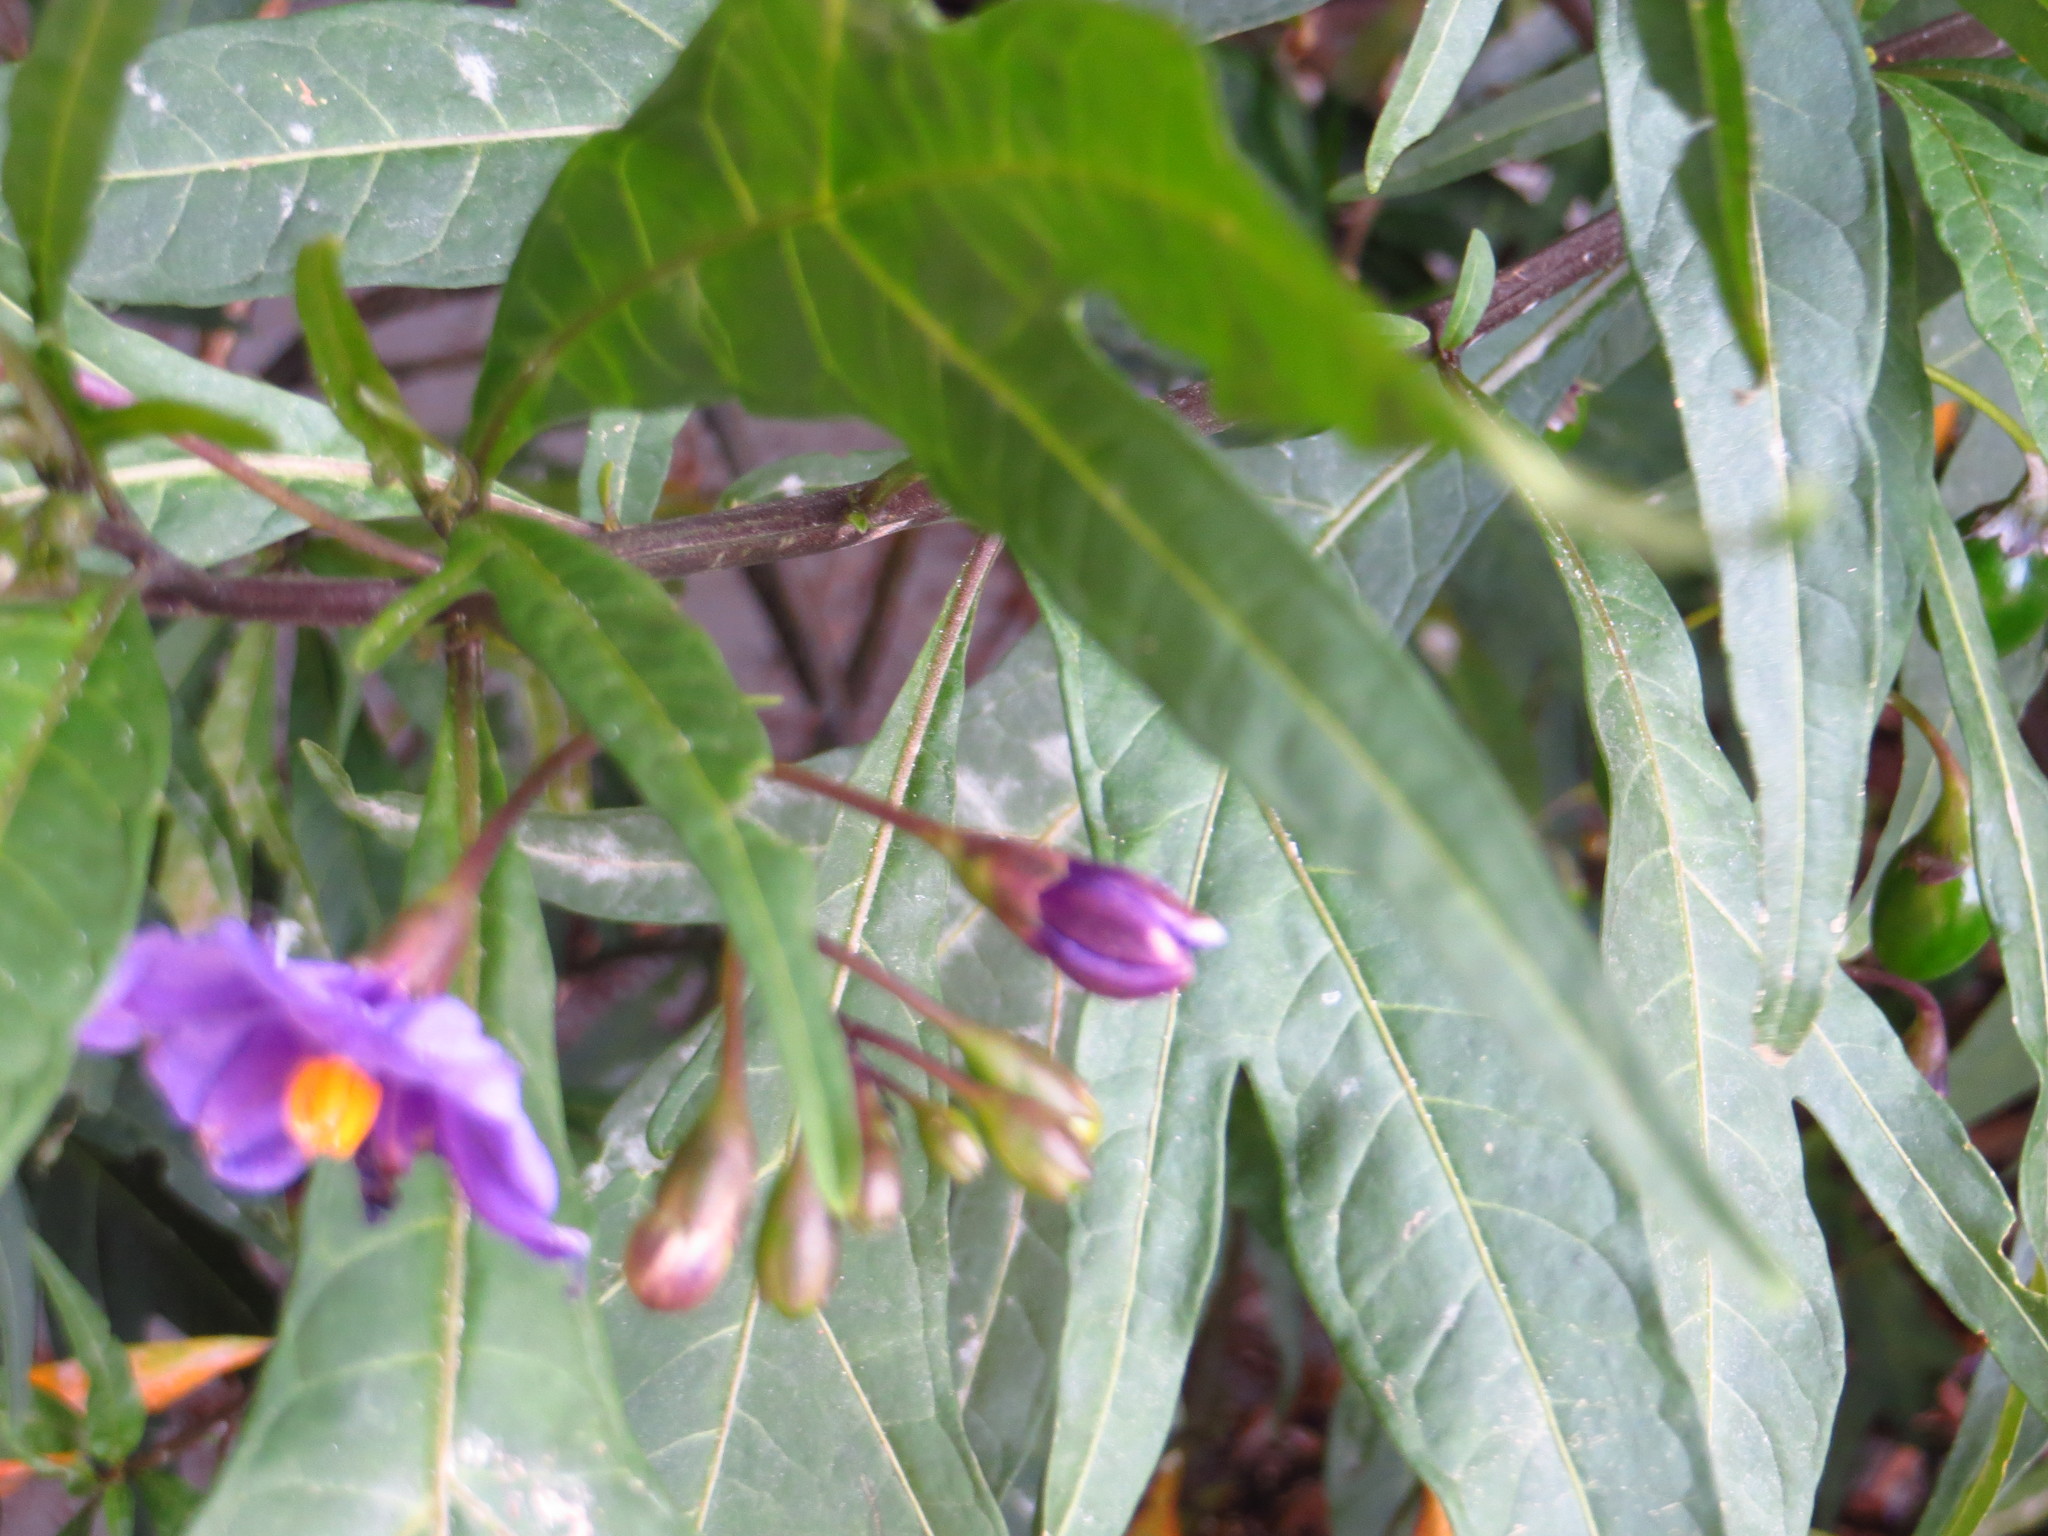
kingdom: Plantae
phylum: Tracheophyta
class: Magnoliopsida
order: Solanales
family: Solanaceae
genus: Solanum
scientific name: Solanum laciniatum
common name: Kangaroo-apple
